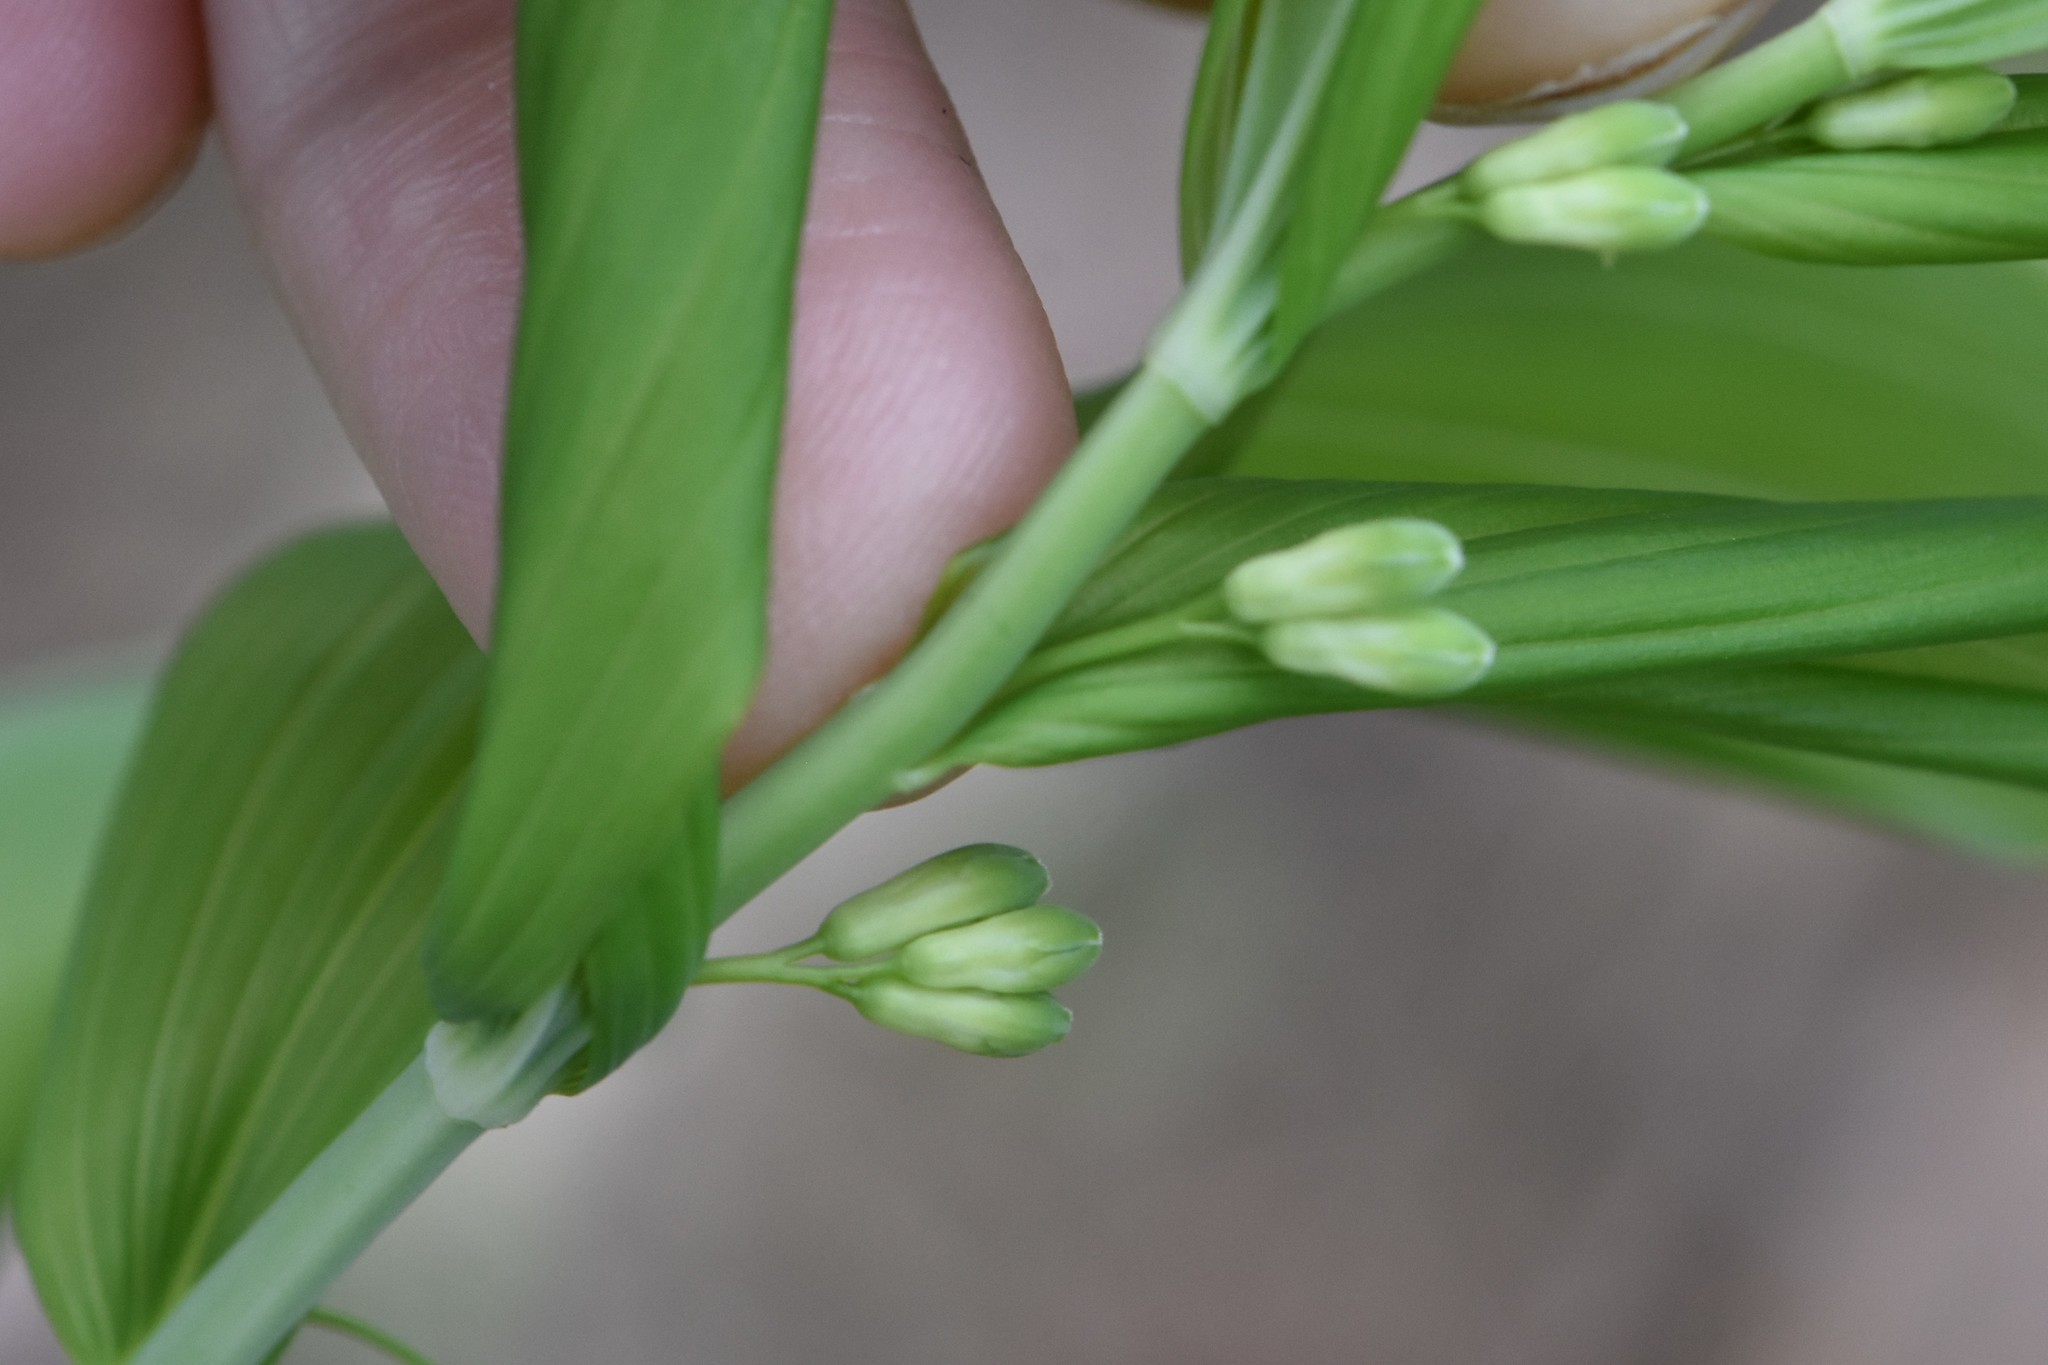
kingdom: Plantae
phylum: Tracheophyta
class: Liliopsida
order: Asparagales
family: Asparagaceae
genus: Polygonatum
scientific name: Polygonatum multiflorum
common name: Solomon's-seal
